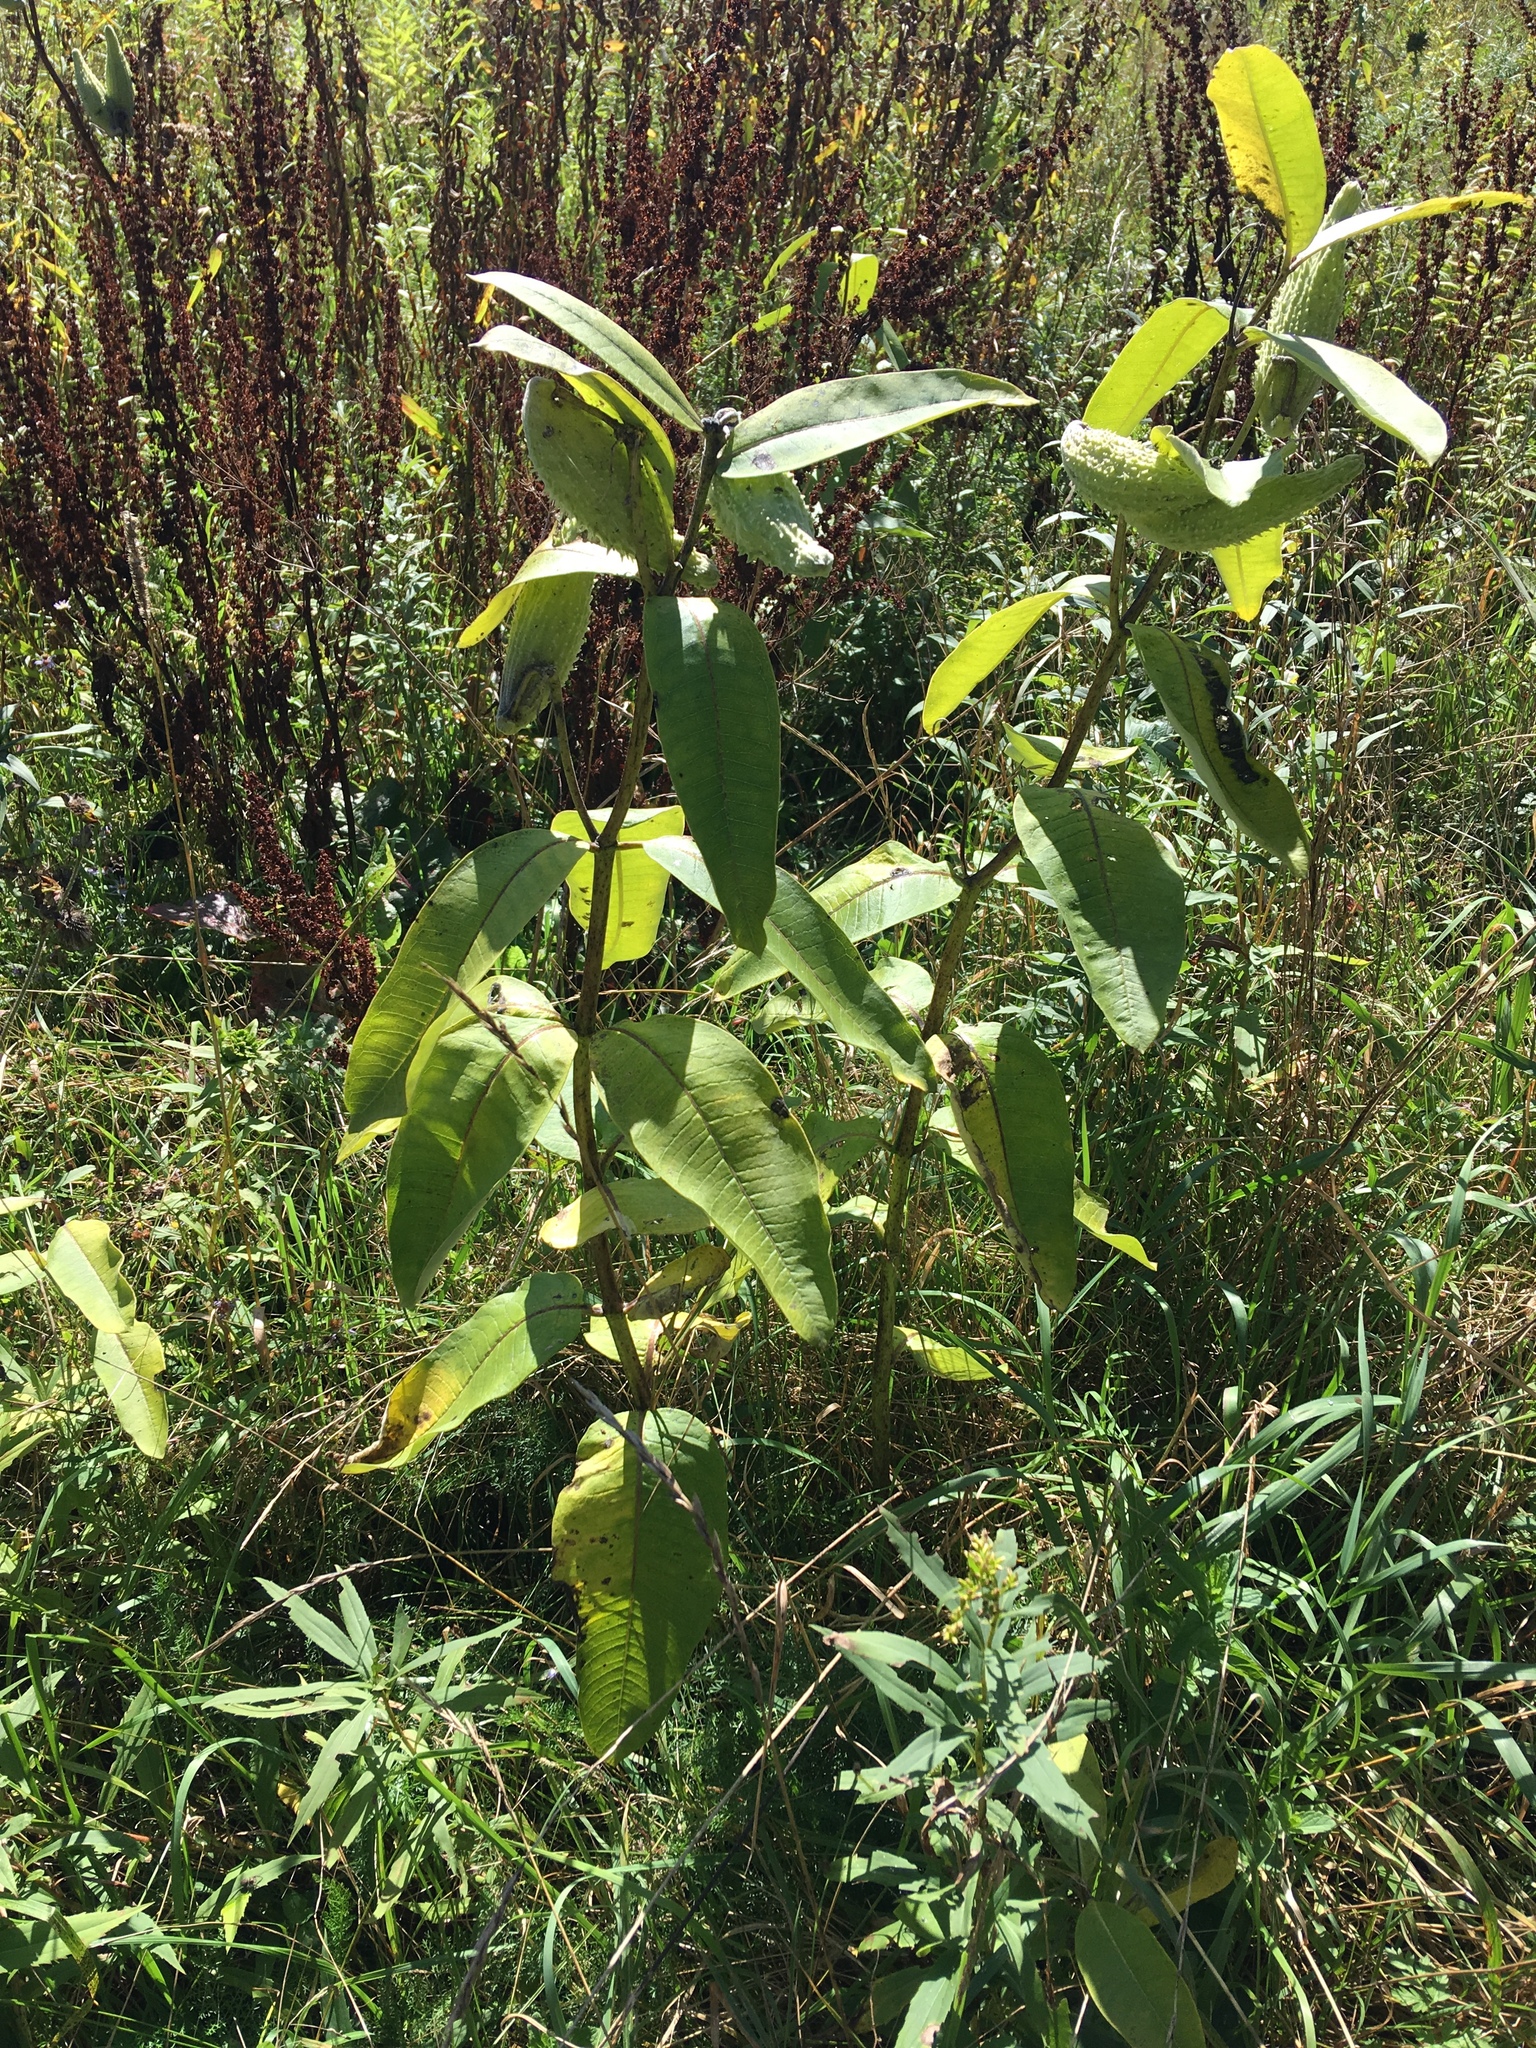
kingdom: Plantae
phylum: Tracheophyta
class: Magnoliopsida
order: Gentianales
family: Apocynaceae
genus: Asclepias
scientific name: Asclepias syriaca
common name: Common milkweed
